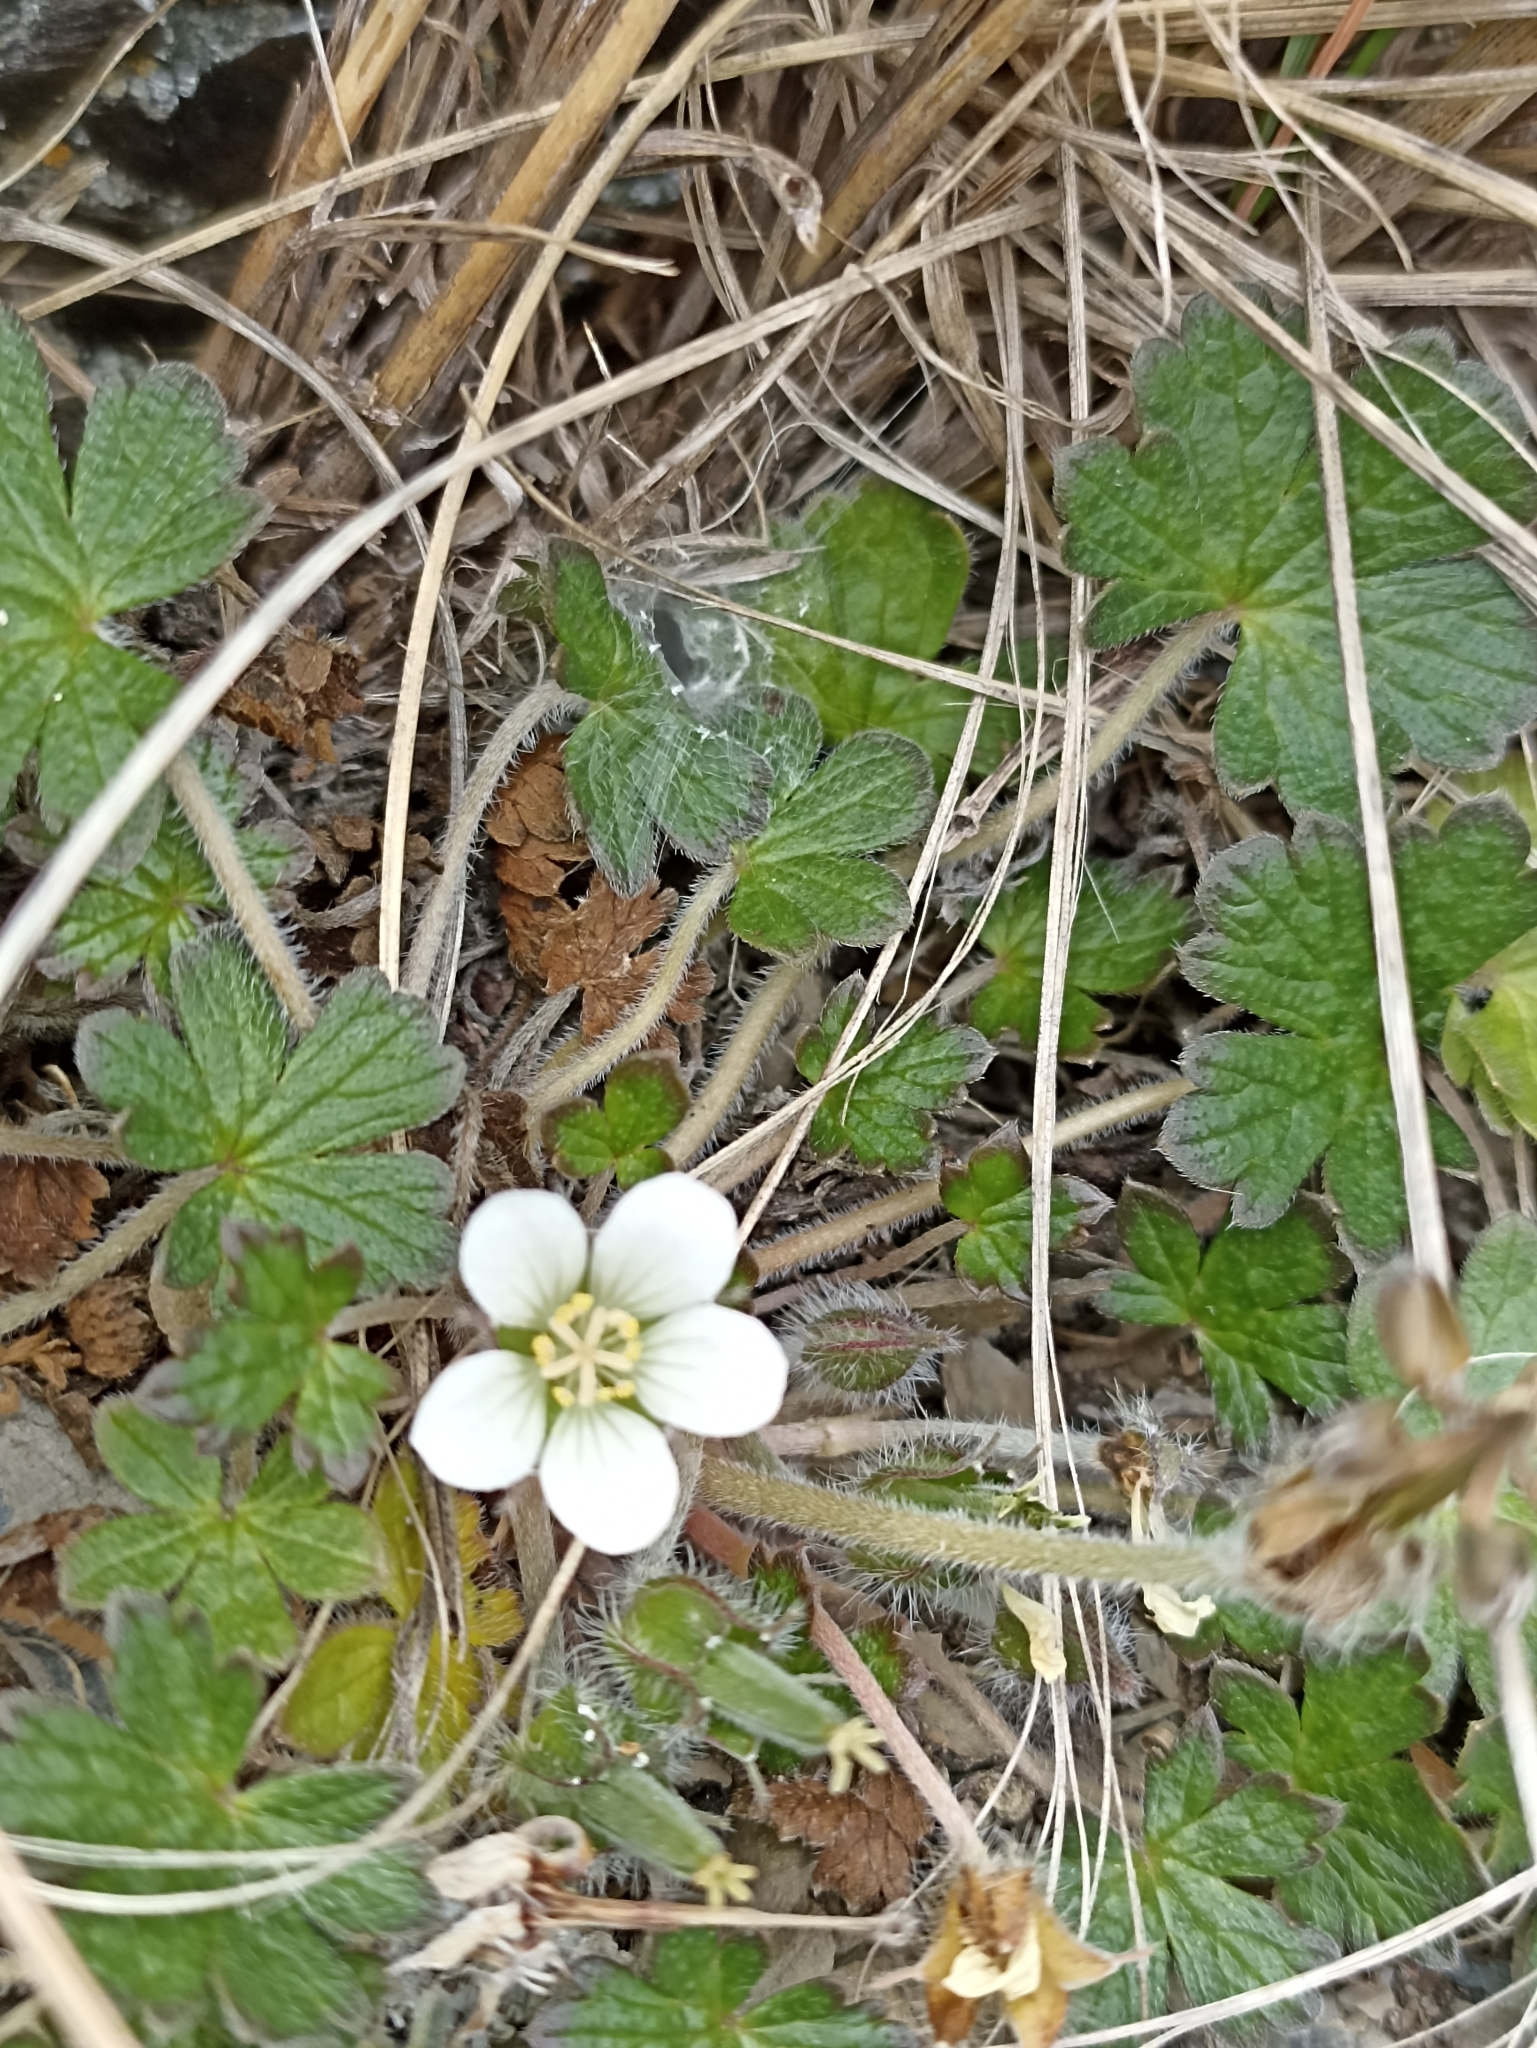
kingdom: Plantae
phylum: Tracheophyta
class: Magnoliopsida
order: Geraniales
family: Geraniaceae
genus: Geranium
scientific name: Geranium brevicaule
